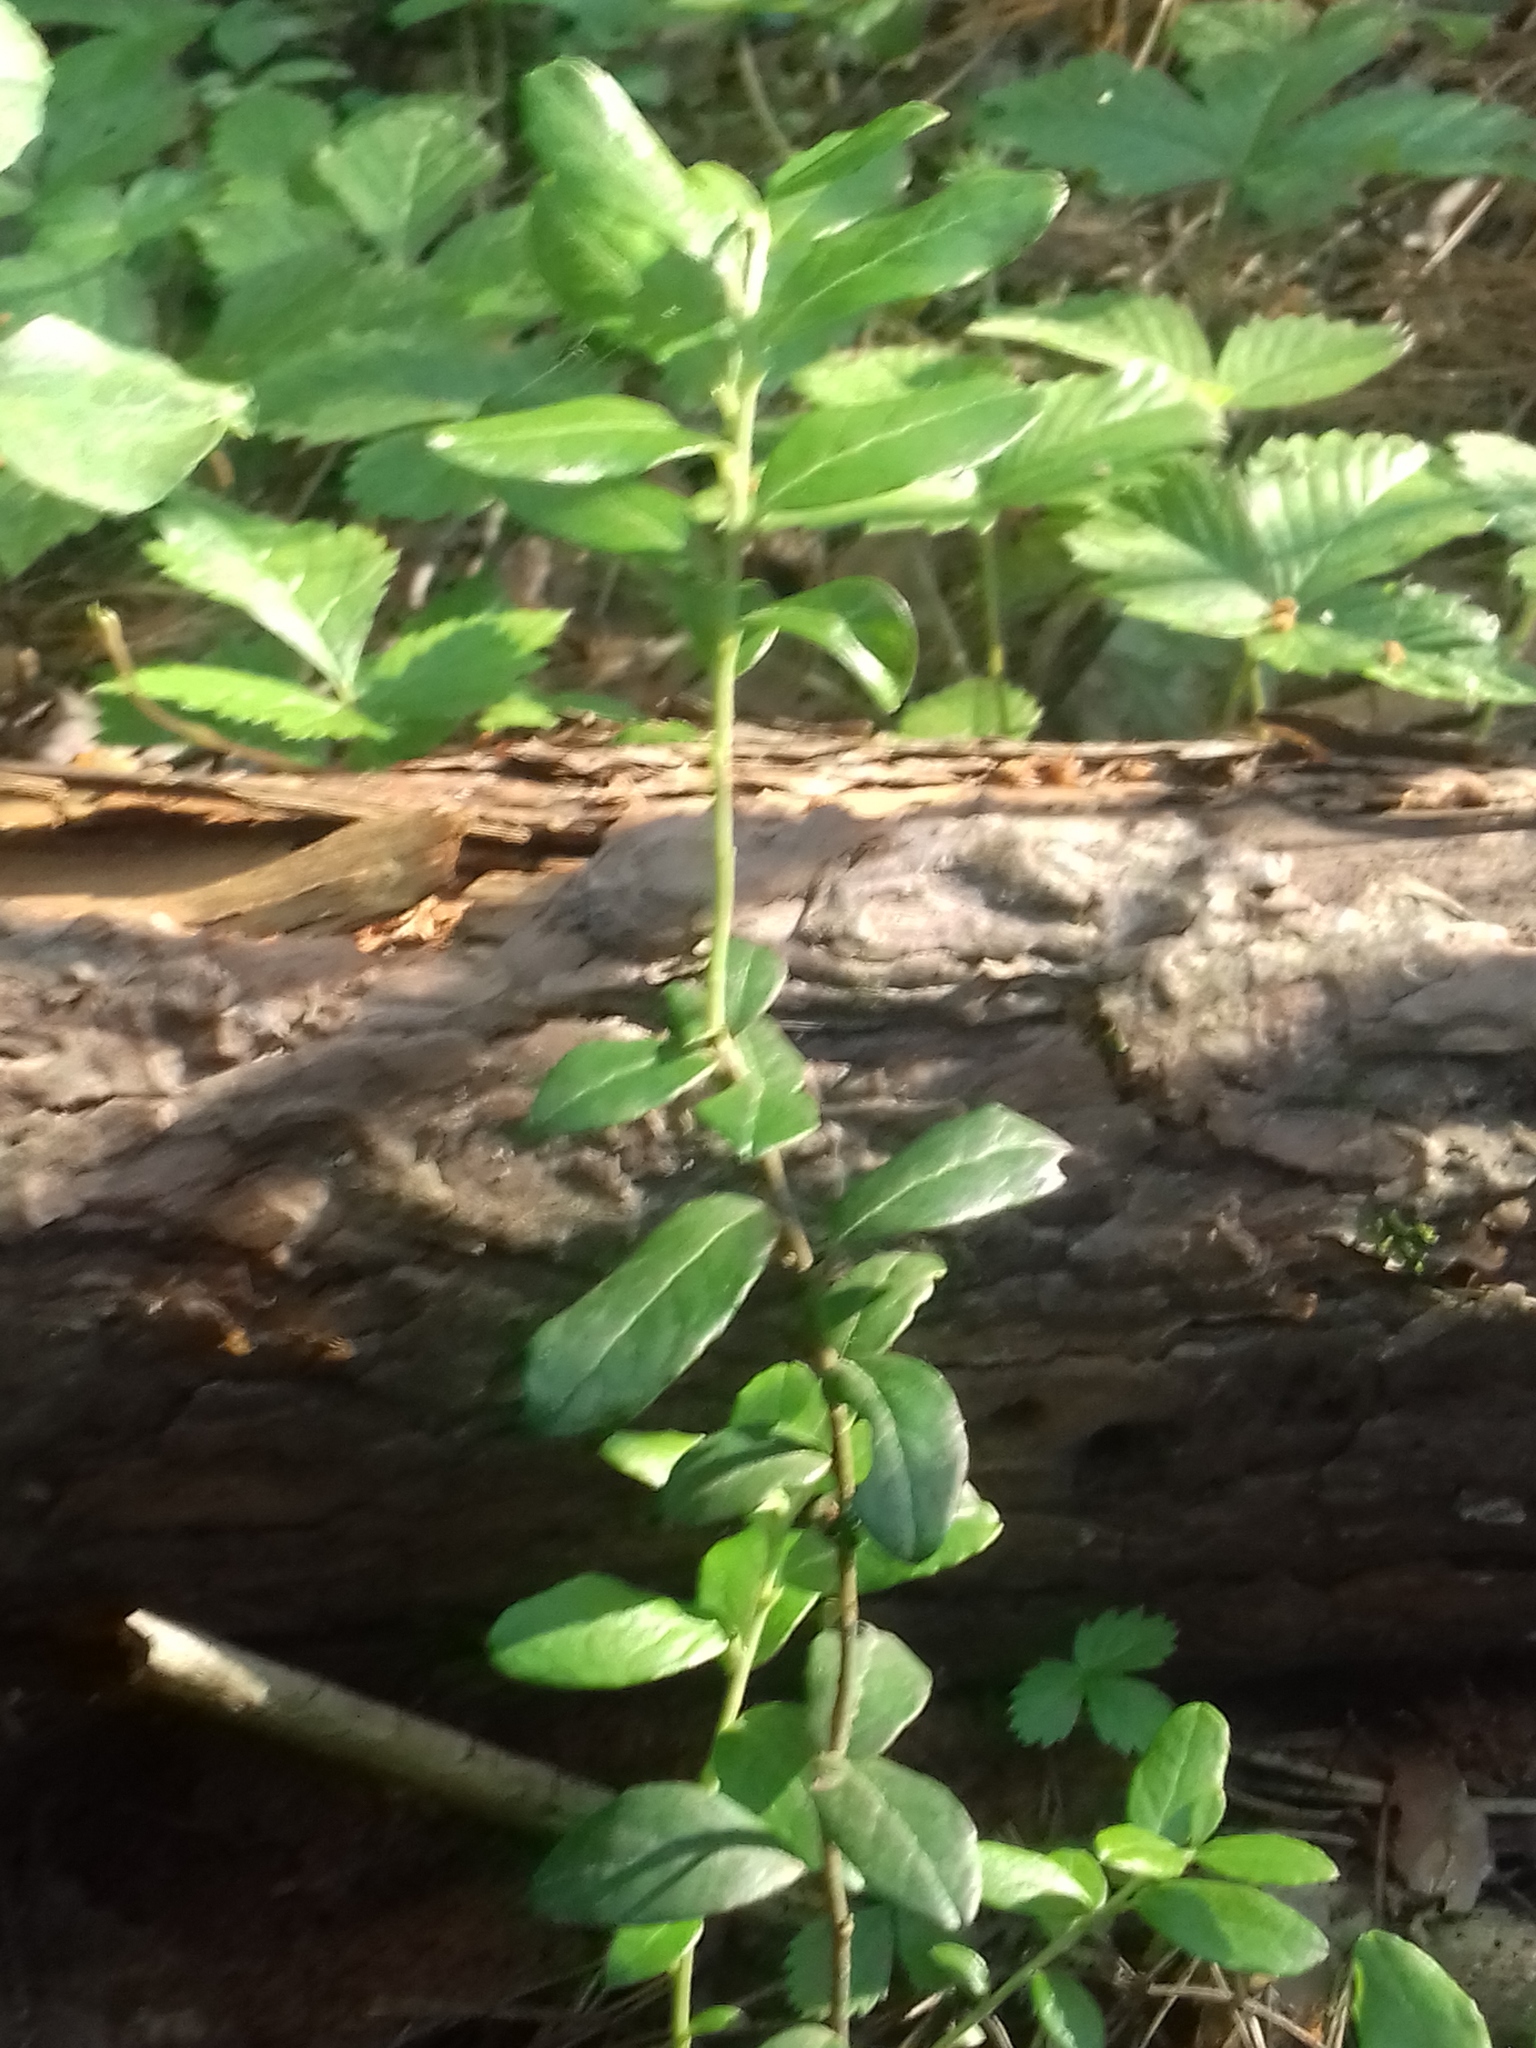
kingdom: Plantae
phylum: Tracheophyta
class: Magnoliopsida
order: Ericales
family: Ericaceae
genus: Vaccinium
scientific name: Vaccinium vitis-idaea
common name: Cowberry
